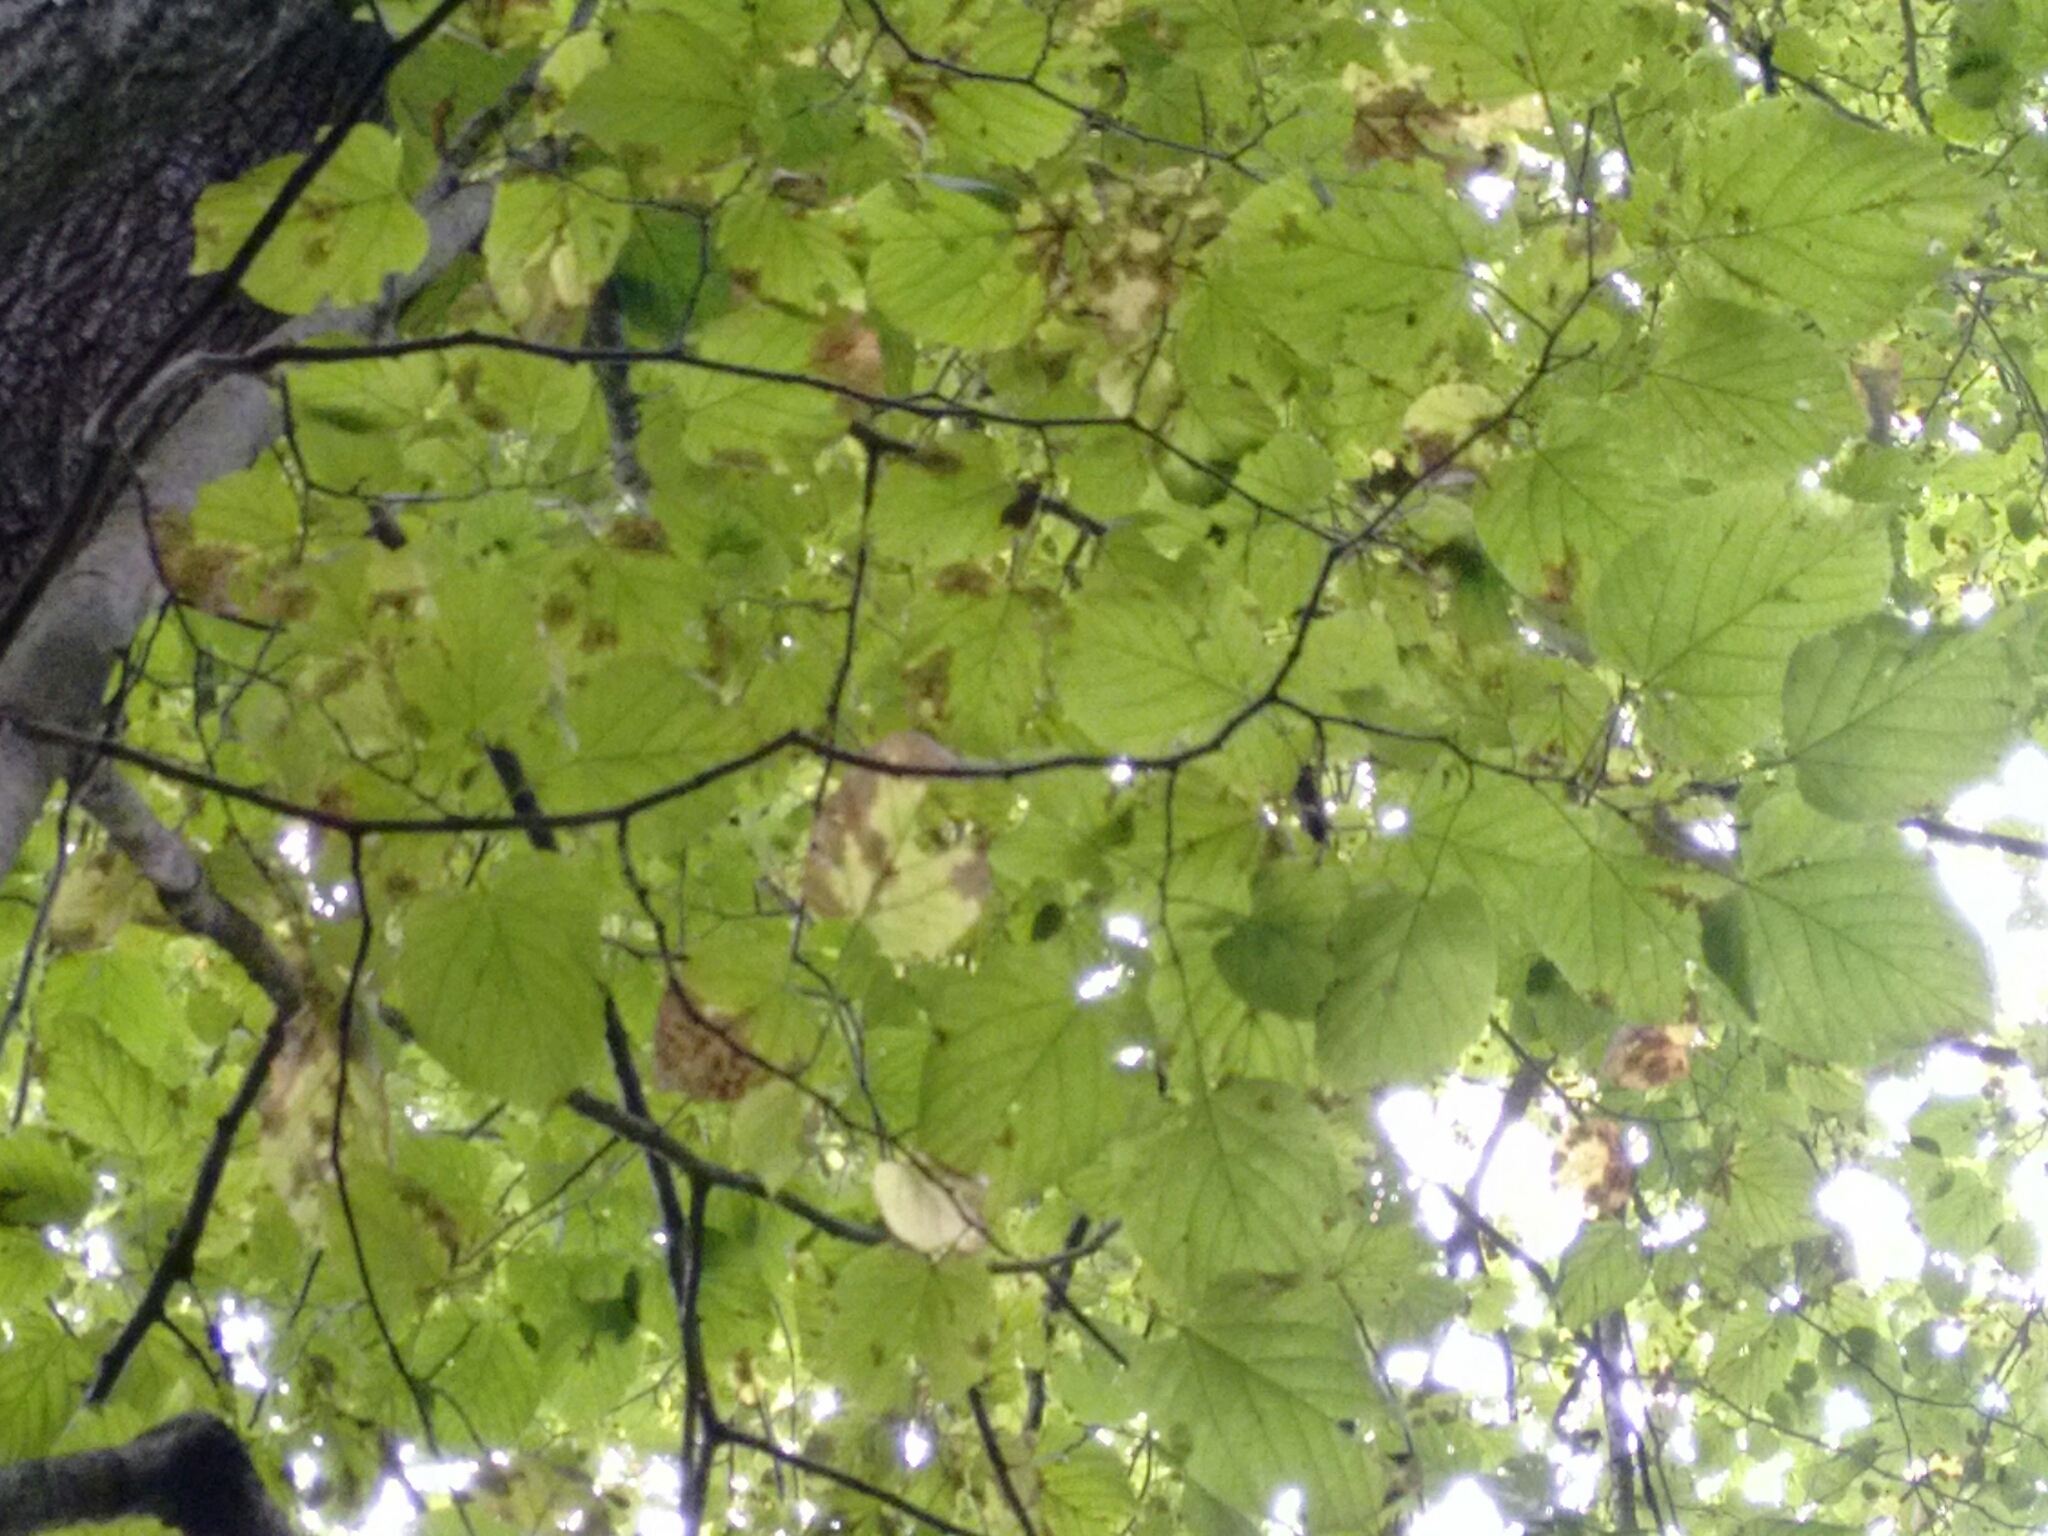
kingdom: Plantae
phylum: Tracheophyta
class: Magnoliopsida
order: Malvales
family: Malvaceae
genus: Tilia
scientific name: Tilia americana
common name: Basswood
